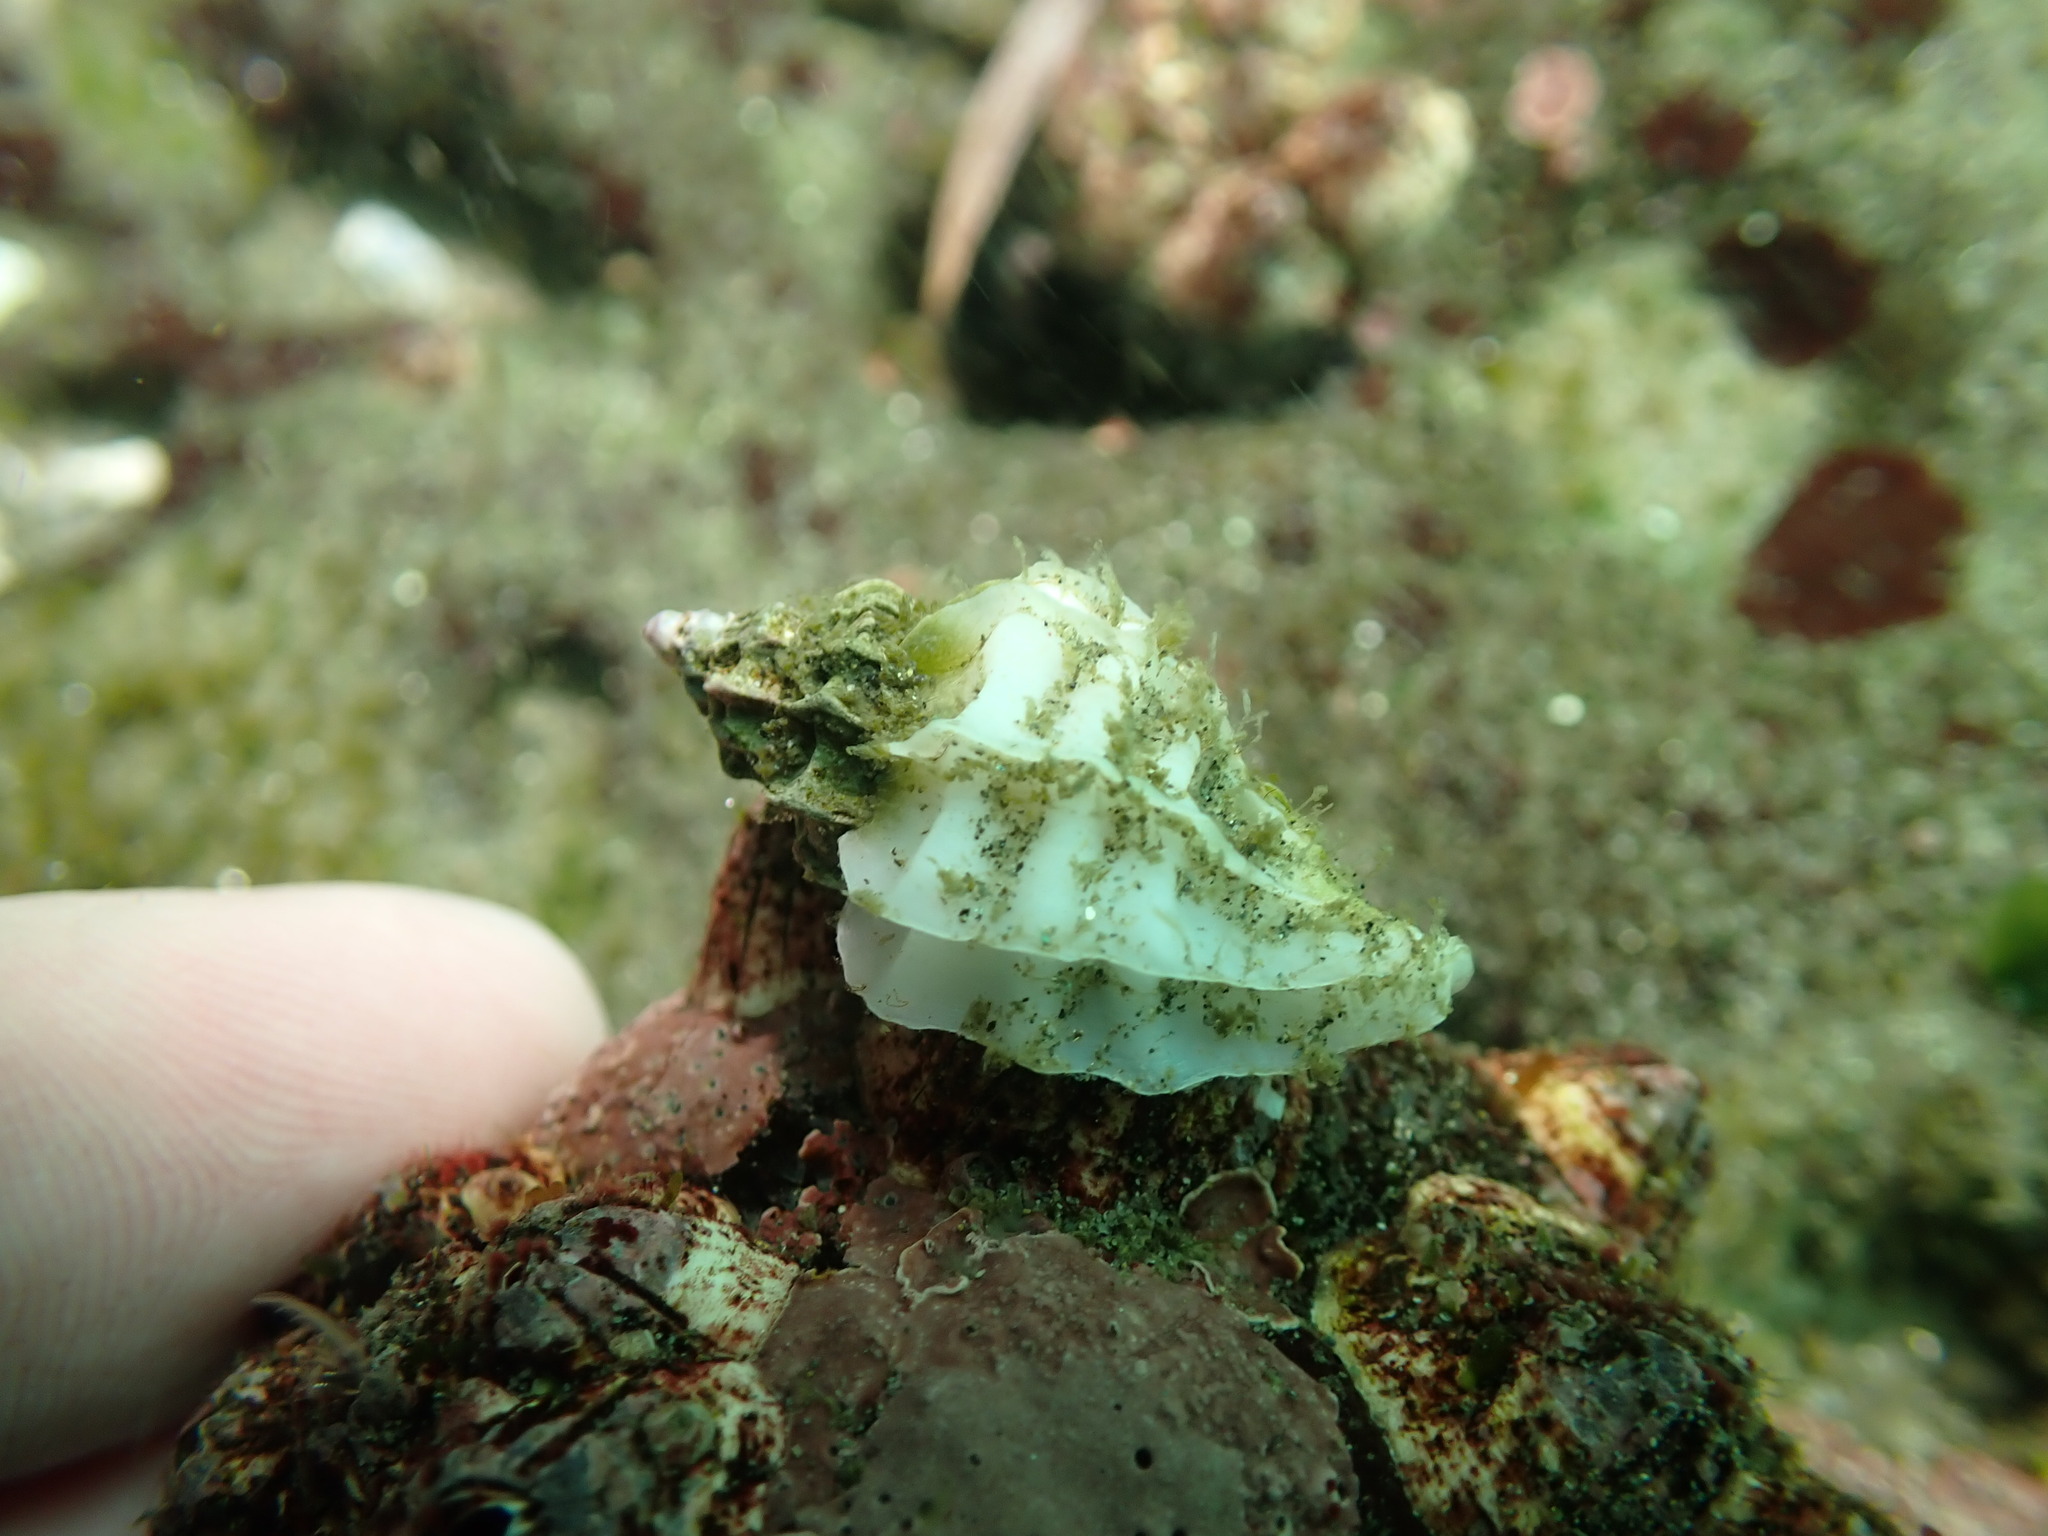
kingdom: Animalia
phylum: Mollusca
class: Gastropoda
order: Neogastropoda
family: Muricidae
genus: Crassilabrum
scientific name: Crassilabrum crassilabrum
